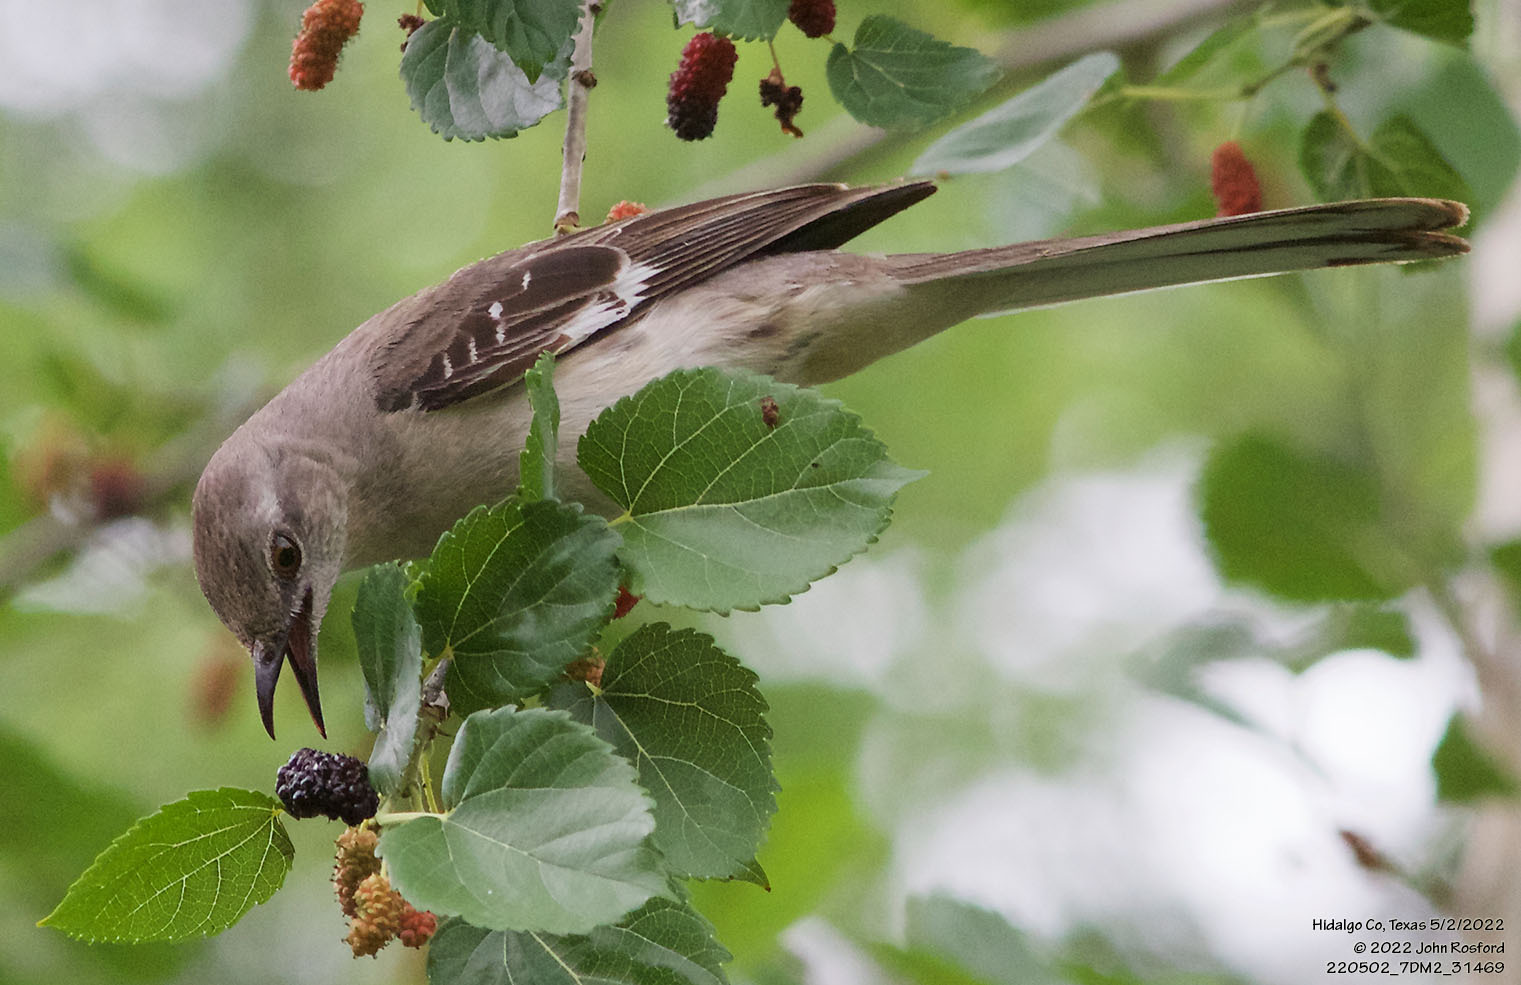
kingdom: Animalia
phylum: Chordata
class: Aves
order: Passeriformes
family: Mimidae
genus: Mimus
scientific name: Mimus polyglottos
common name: Northern mockingbird
